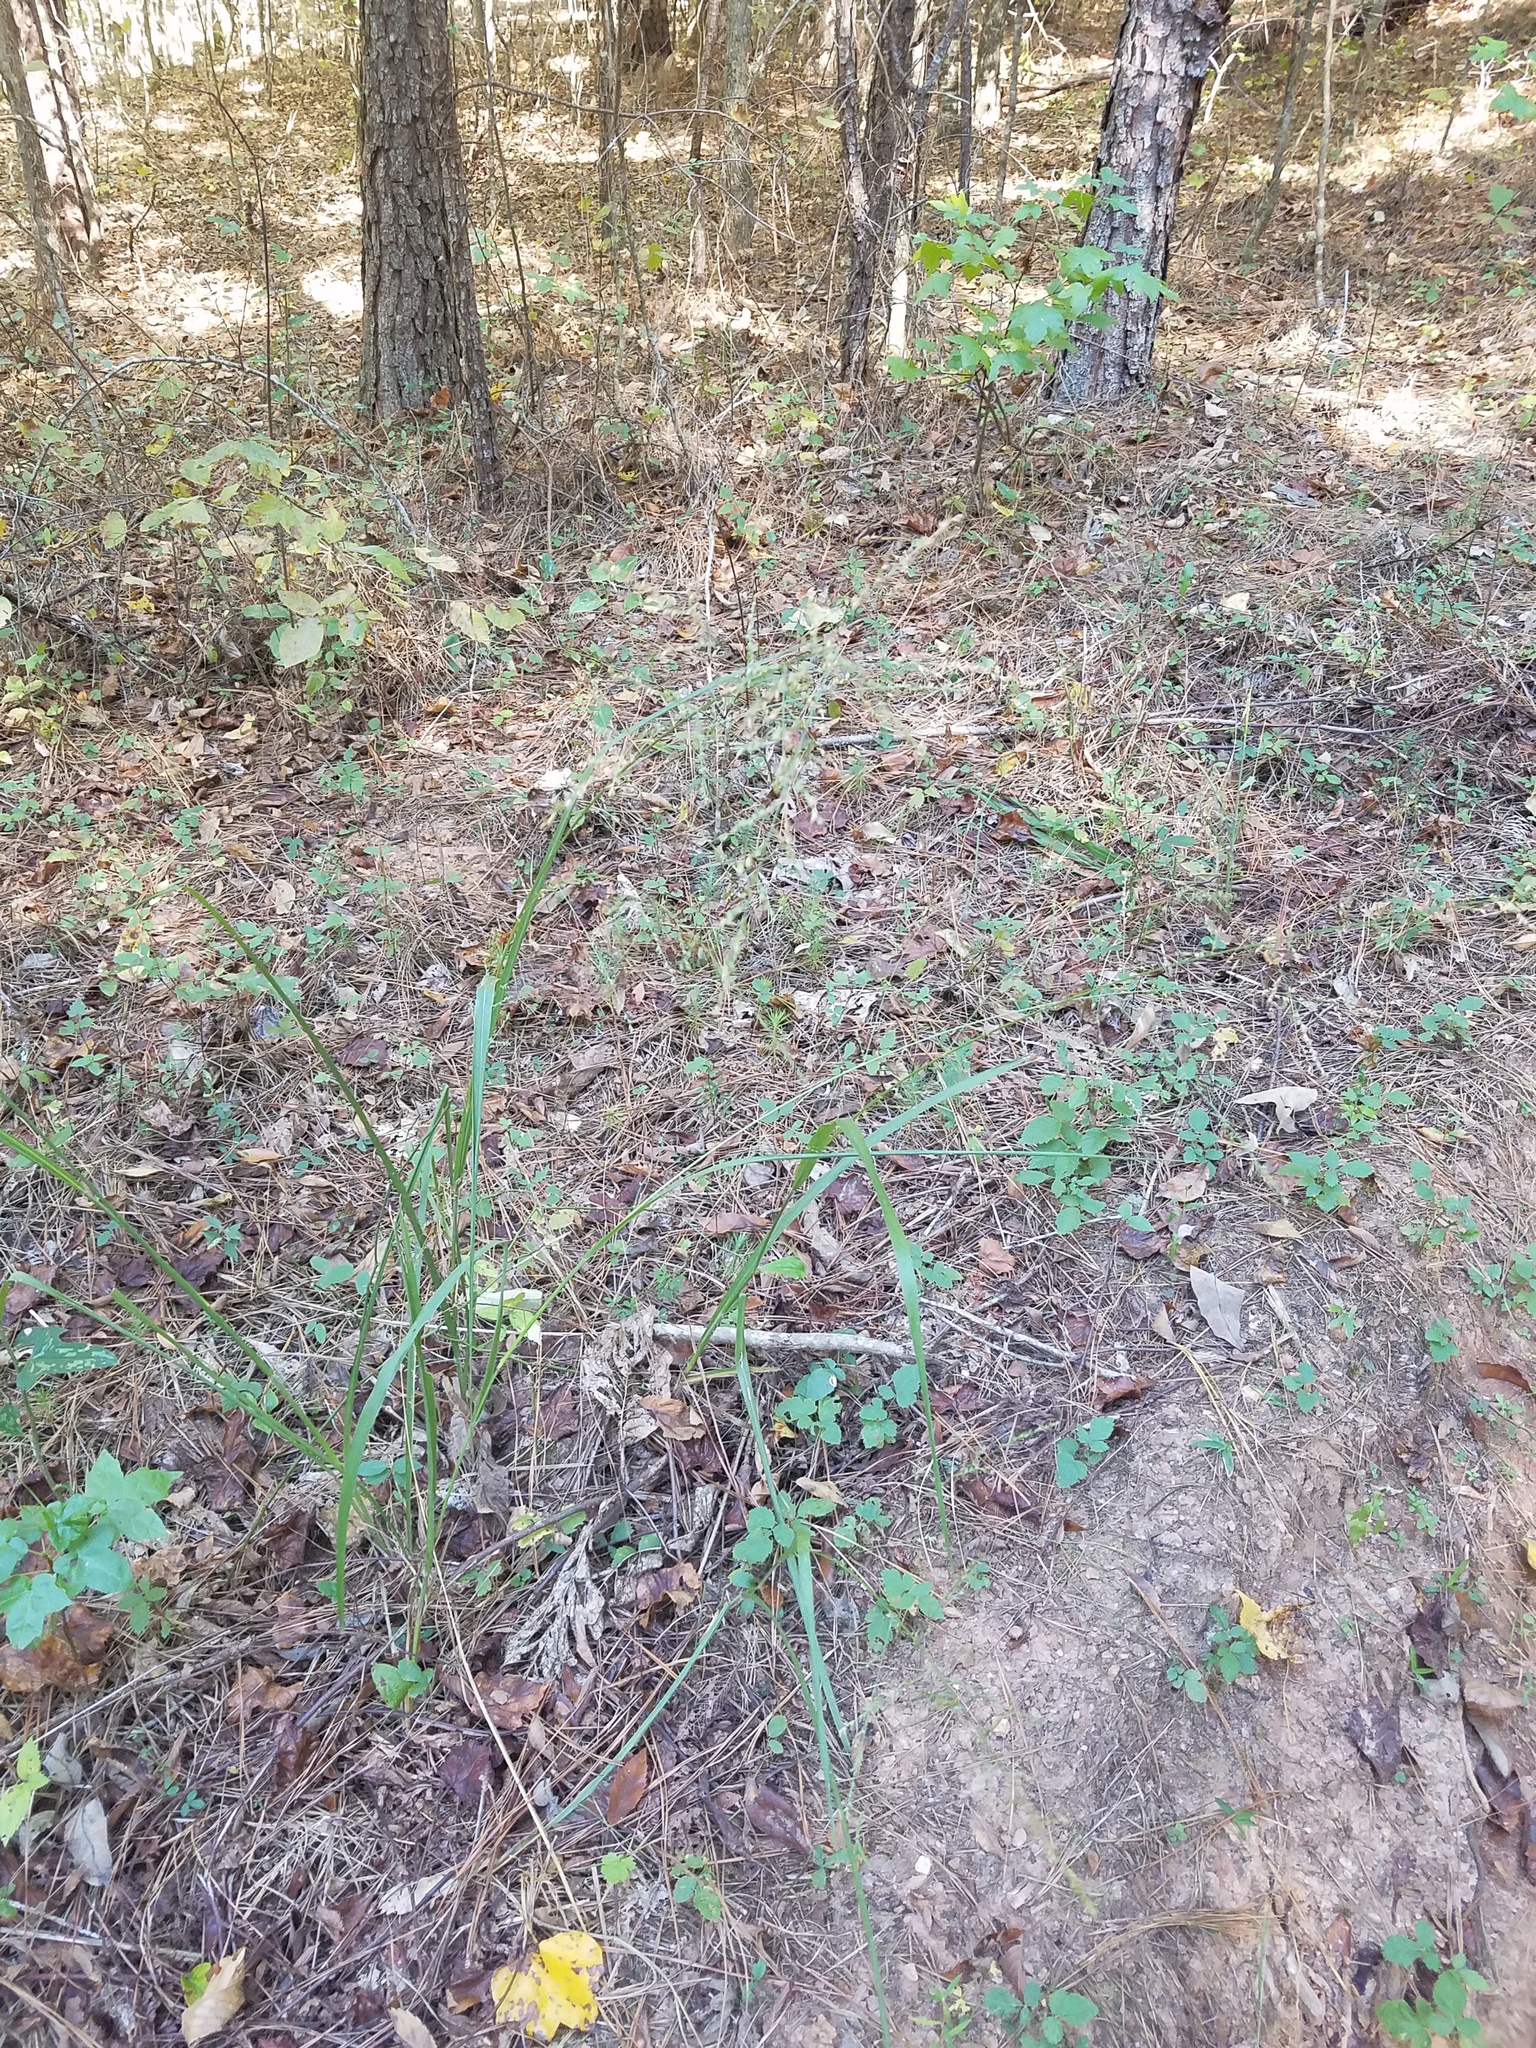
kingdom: Plantae
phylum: Tracheophyta
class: Liliopsida
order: Poales
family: Poaceae
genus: Coleataenia
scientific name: Coleataenia anceps
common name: Beaked panic grass
